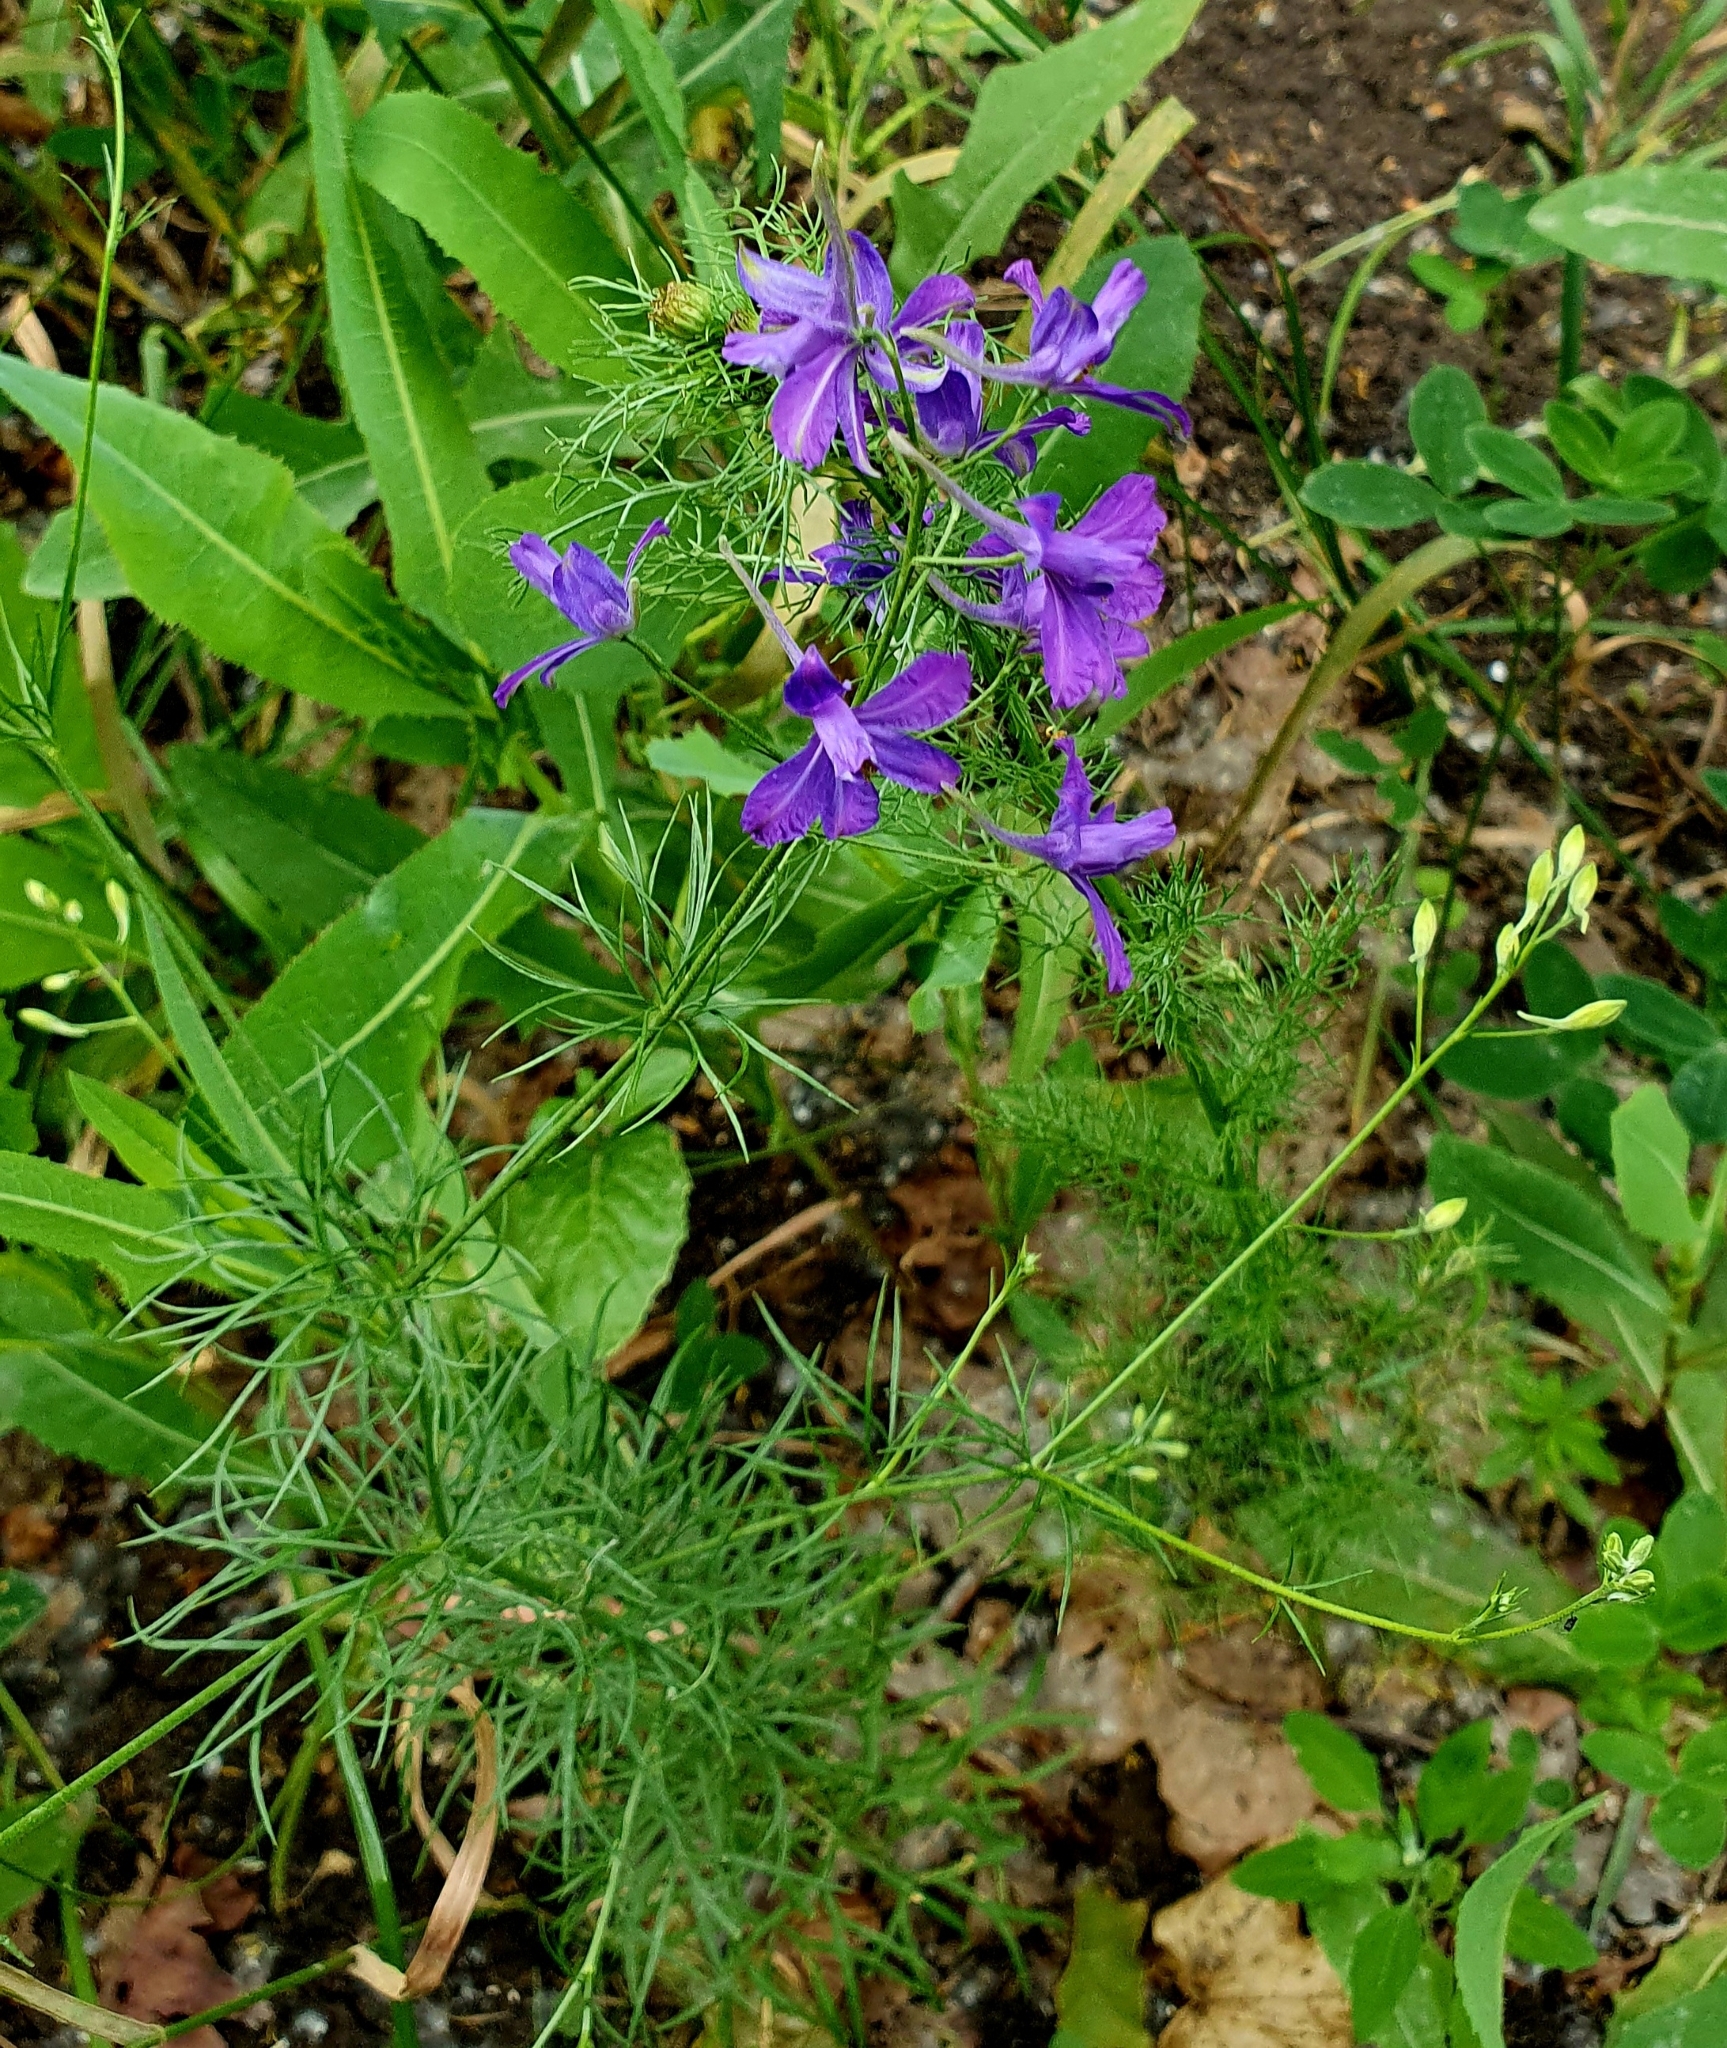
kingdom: Plantae
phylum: Tracheophyta
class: Magnoliopsida
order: Ranunculales
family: Ranunculaceae
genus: Delphinium
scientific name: Delphinium consolida
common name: Branching larkspur
